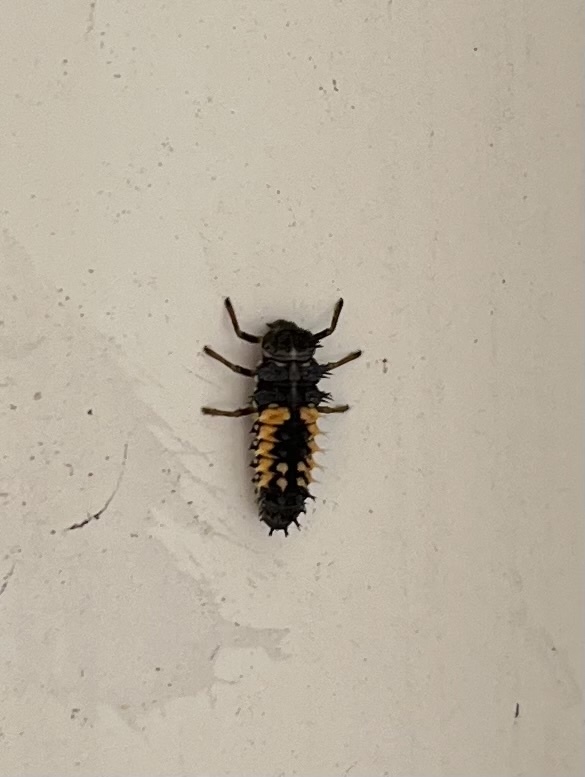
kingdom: Animalia
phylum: Arthropoda
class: Insecta
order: Coleoptera
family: Coccinellidae
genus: Harmonia
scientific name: Harmonia axyridis
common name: Harlequin ladybird
